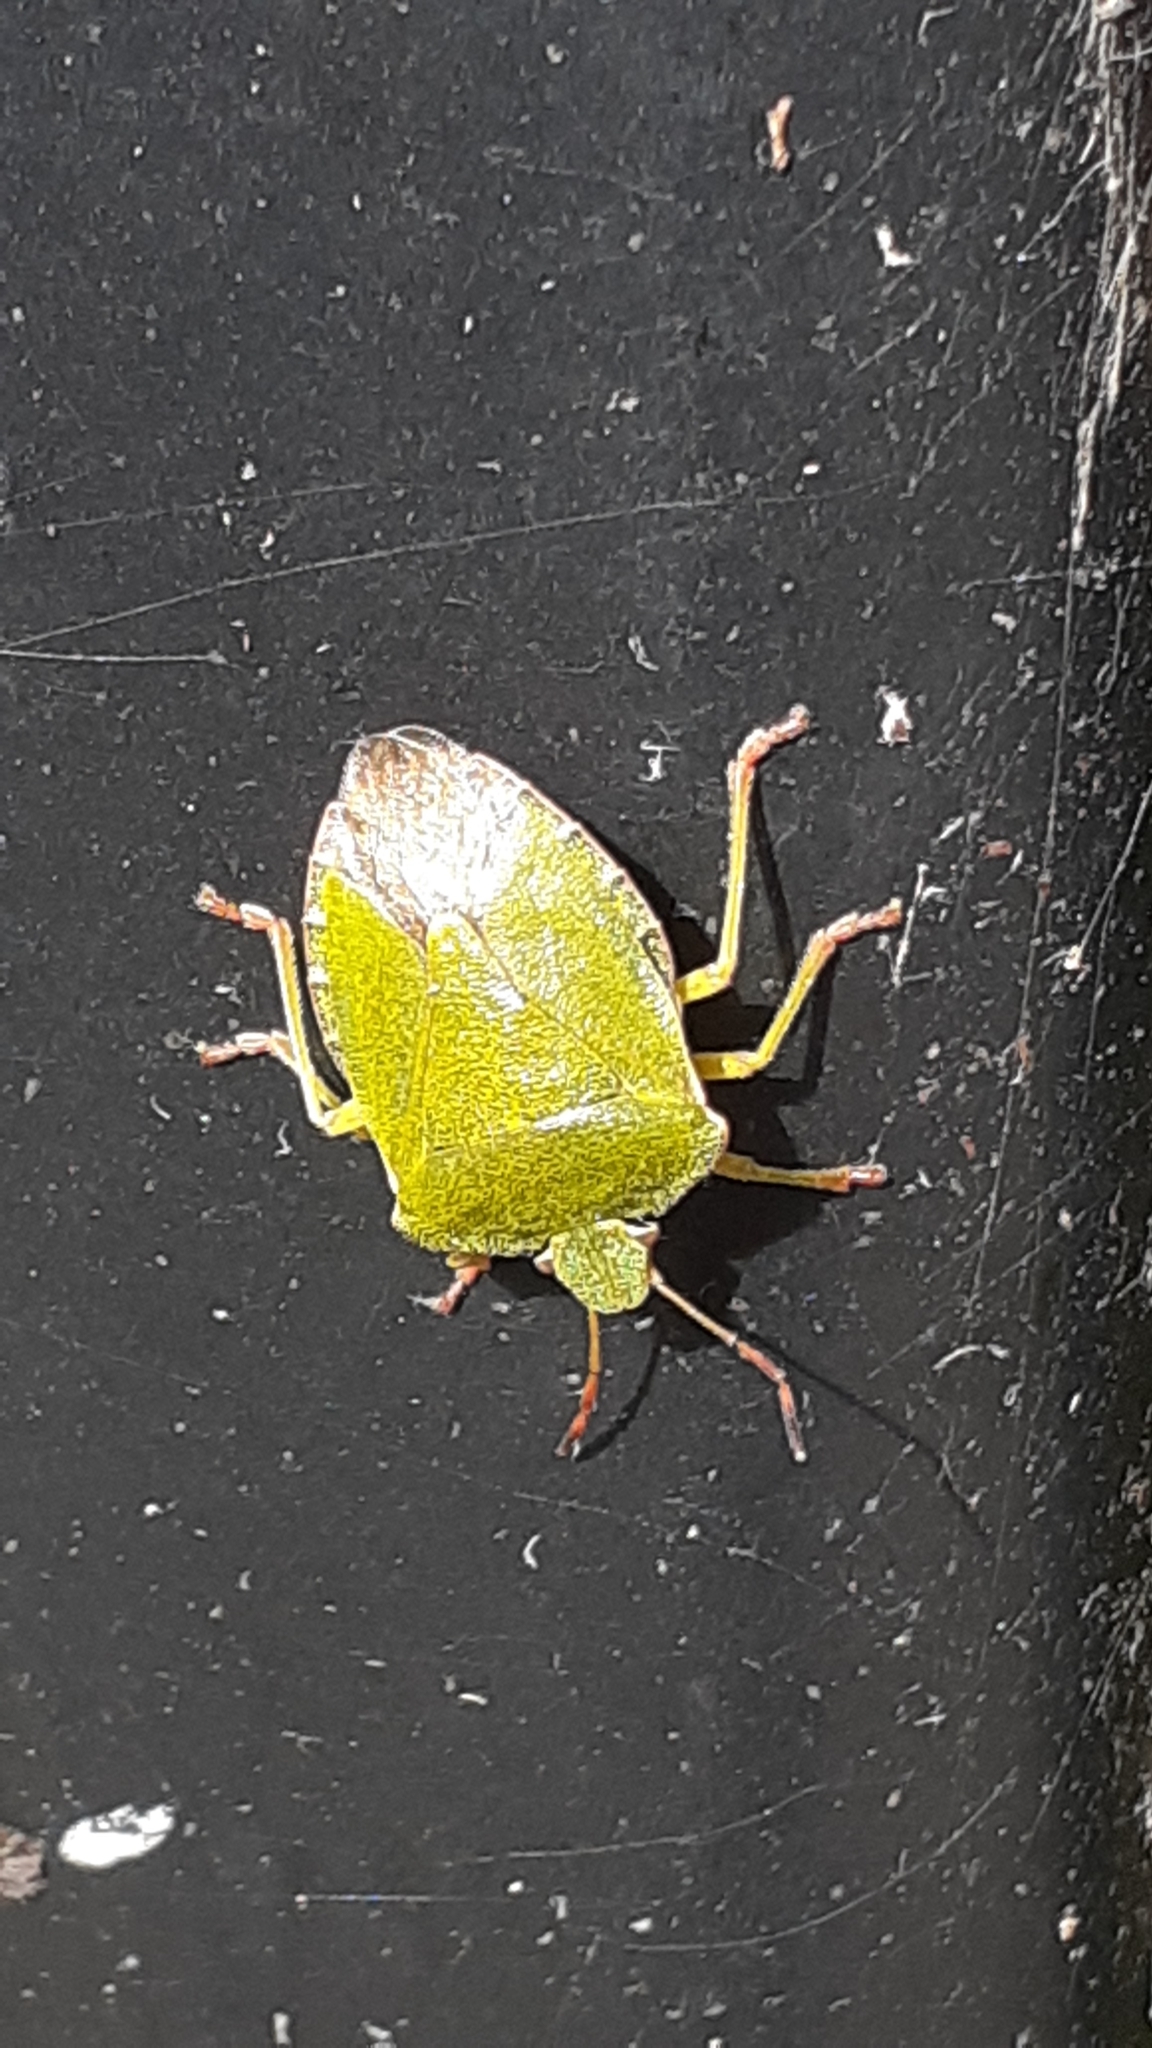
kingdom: Animalia
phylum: Arthropoda
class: Insecta
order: Hemiptera
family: Pentatomidae
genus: Palomena
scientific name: Palomena prasina
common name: Green shieldbug
